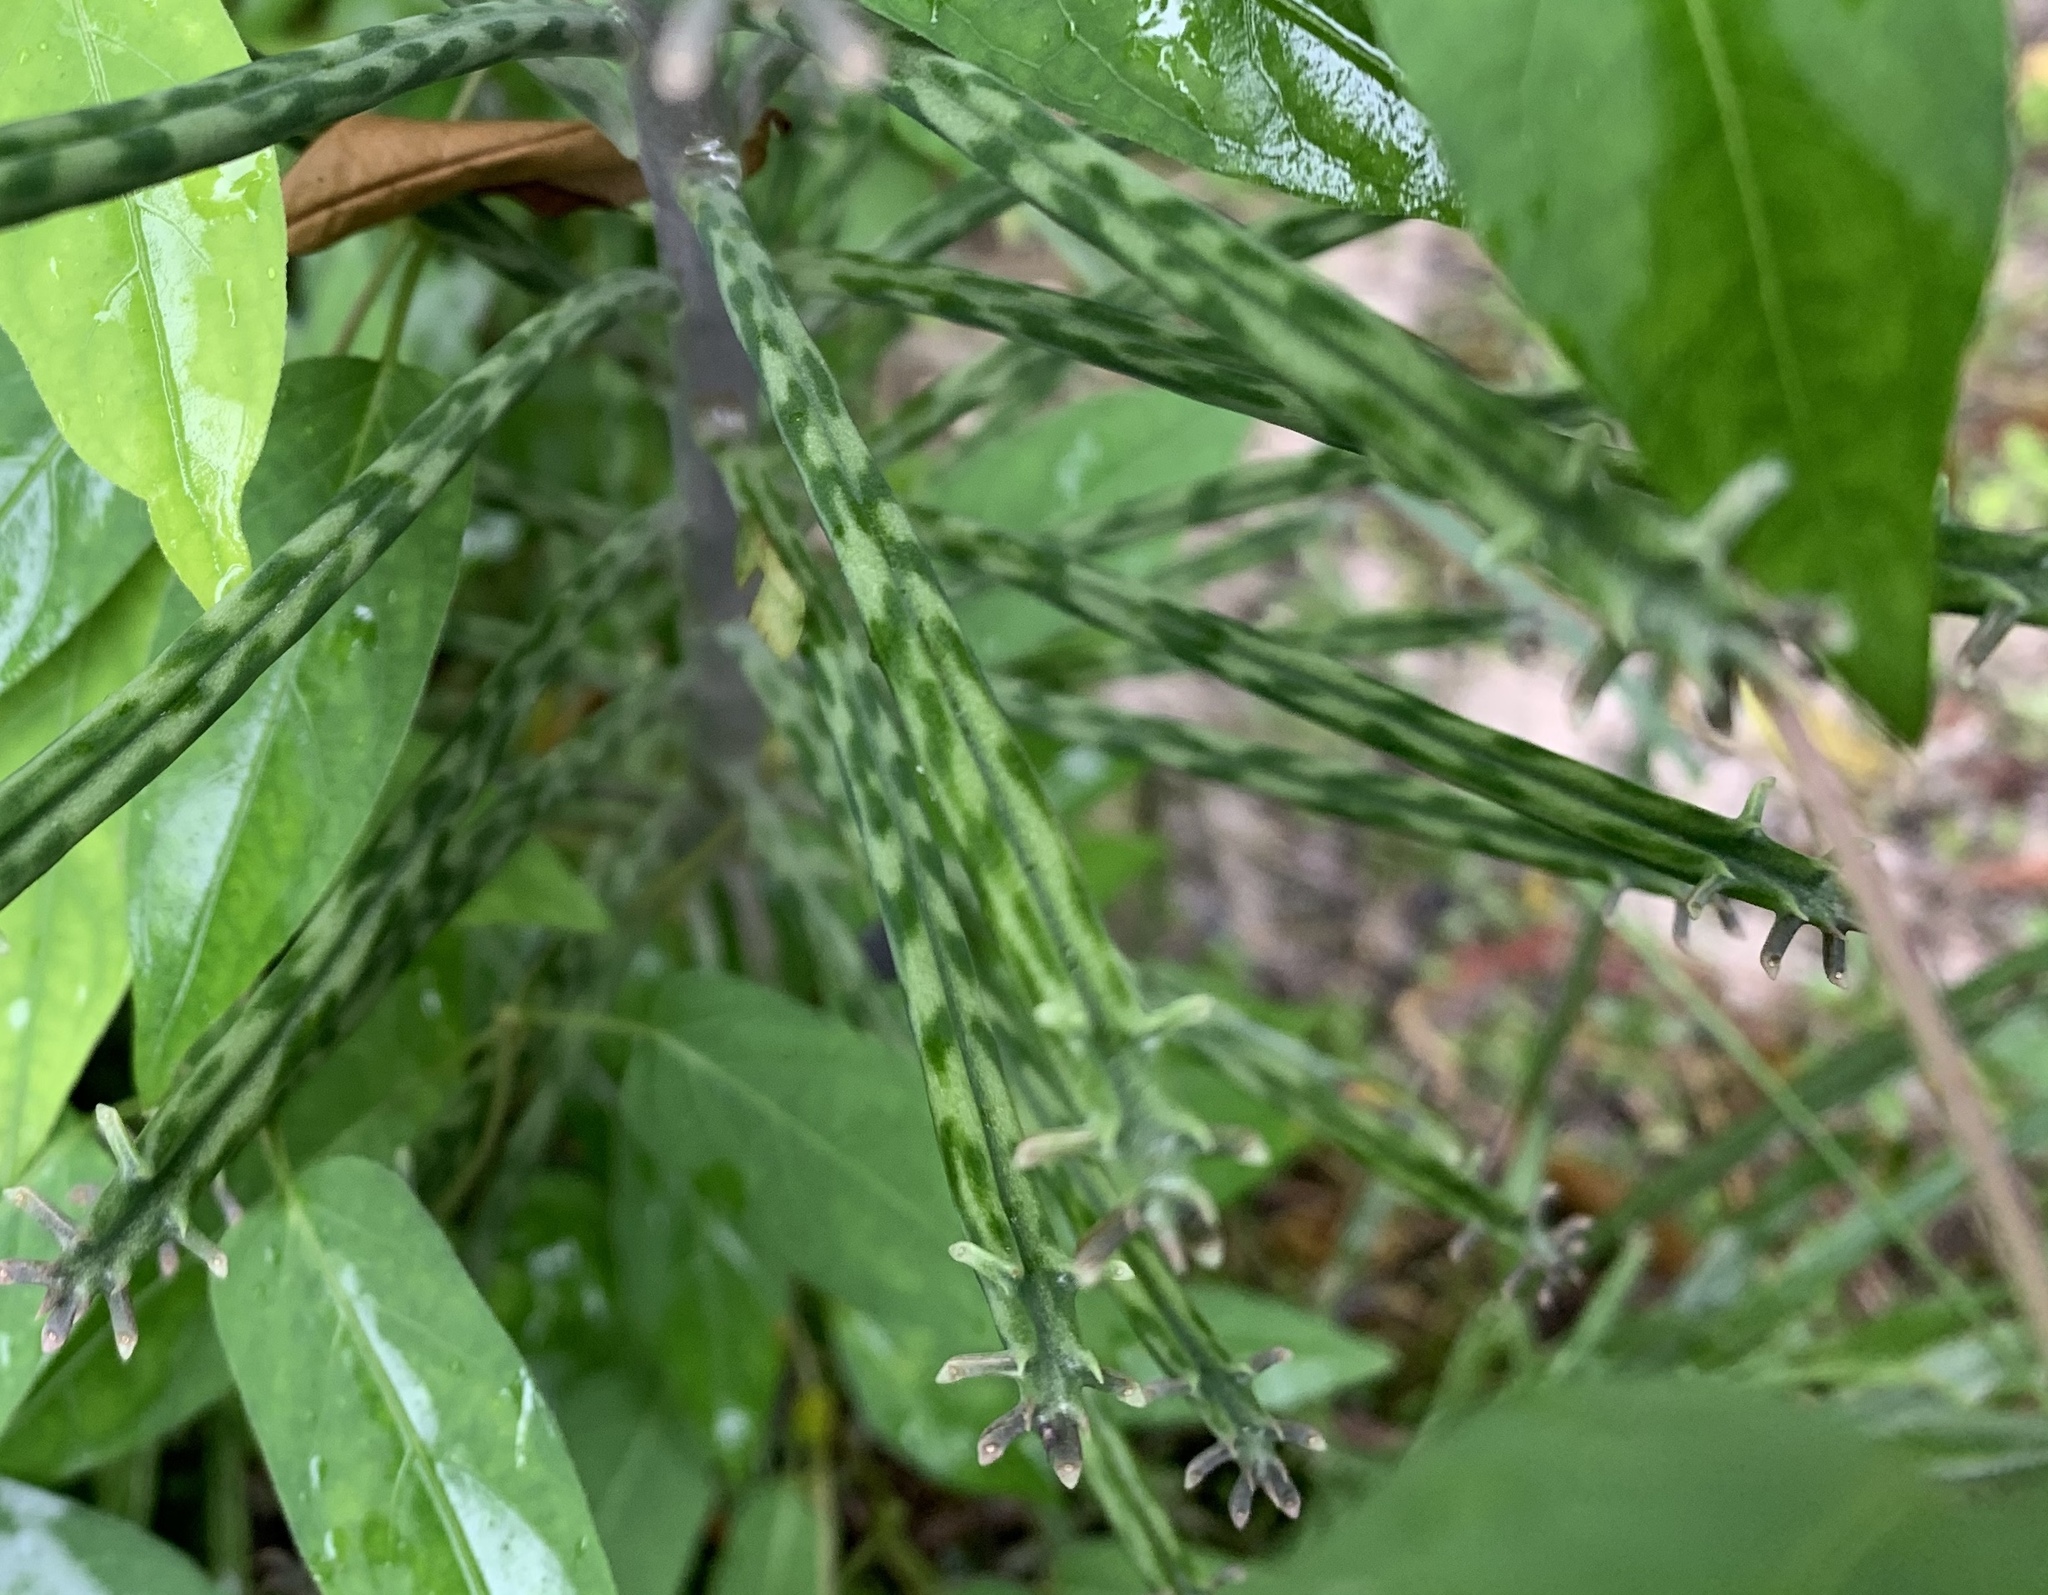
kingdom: Plantae
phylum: Tracheophyta
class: Magnoliopsida
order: Saxifragales
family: Crassulaceae
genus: Kalanchoe
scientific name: Kalanchoe delagoensis
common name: Chandelier plant
